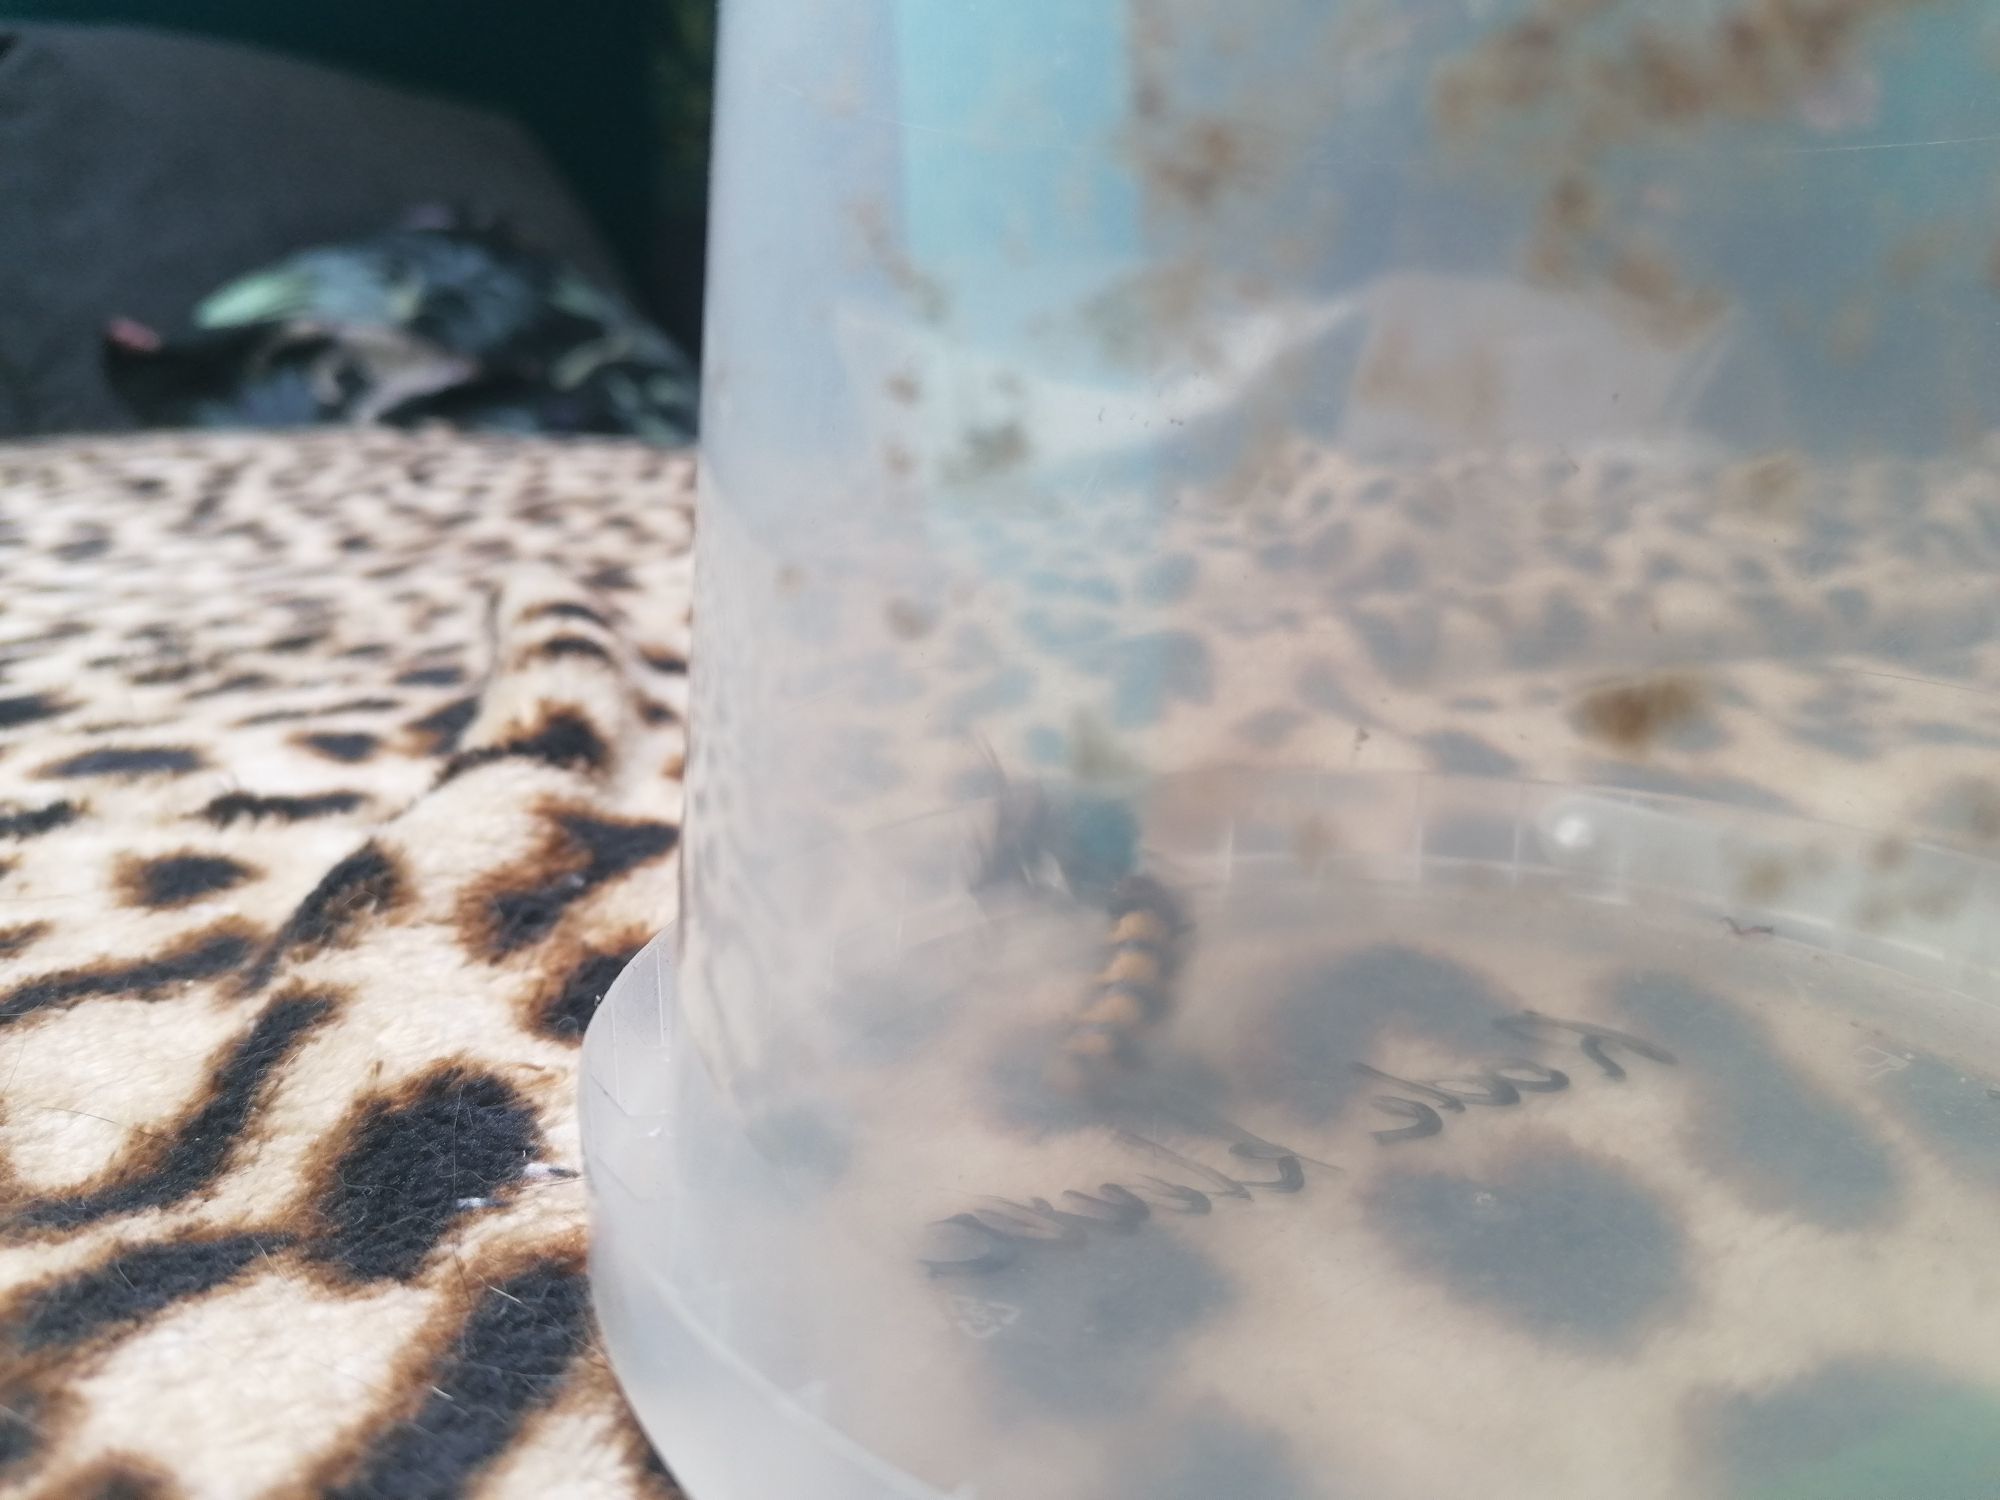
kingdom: Animalia
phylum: Arthropoda
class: Insecta
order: Hymenoptera
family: Vespidae
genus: Vespa
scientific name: Vespa crabro
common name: Hornet
